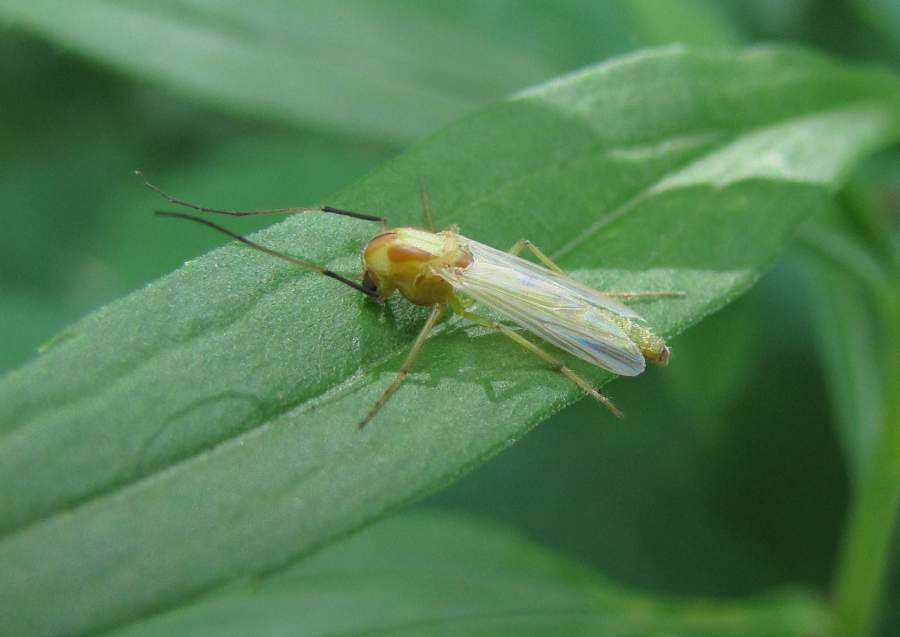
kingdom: Animalia
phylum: Arthropoda
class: Insecta
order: Diptera
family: Chironomidae
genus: Axarus
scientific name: Axarus
